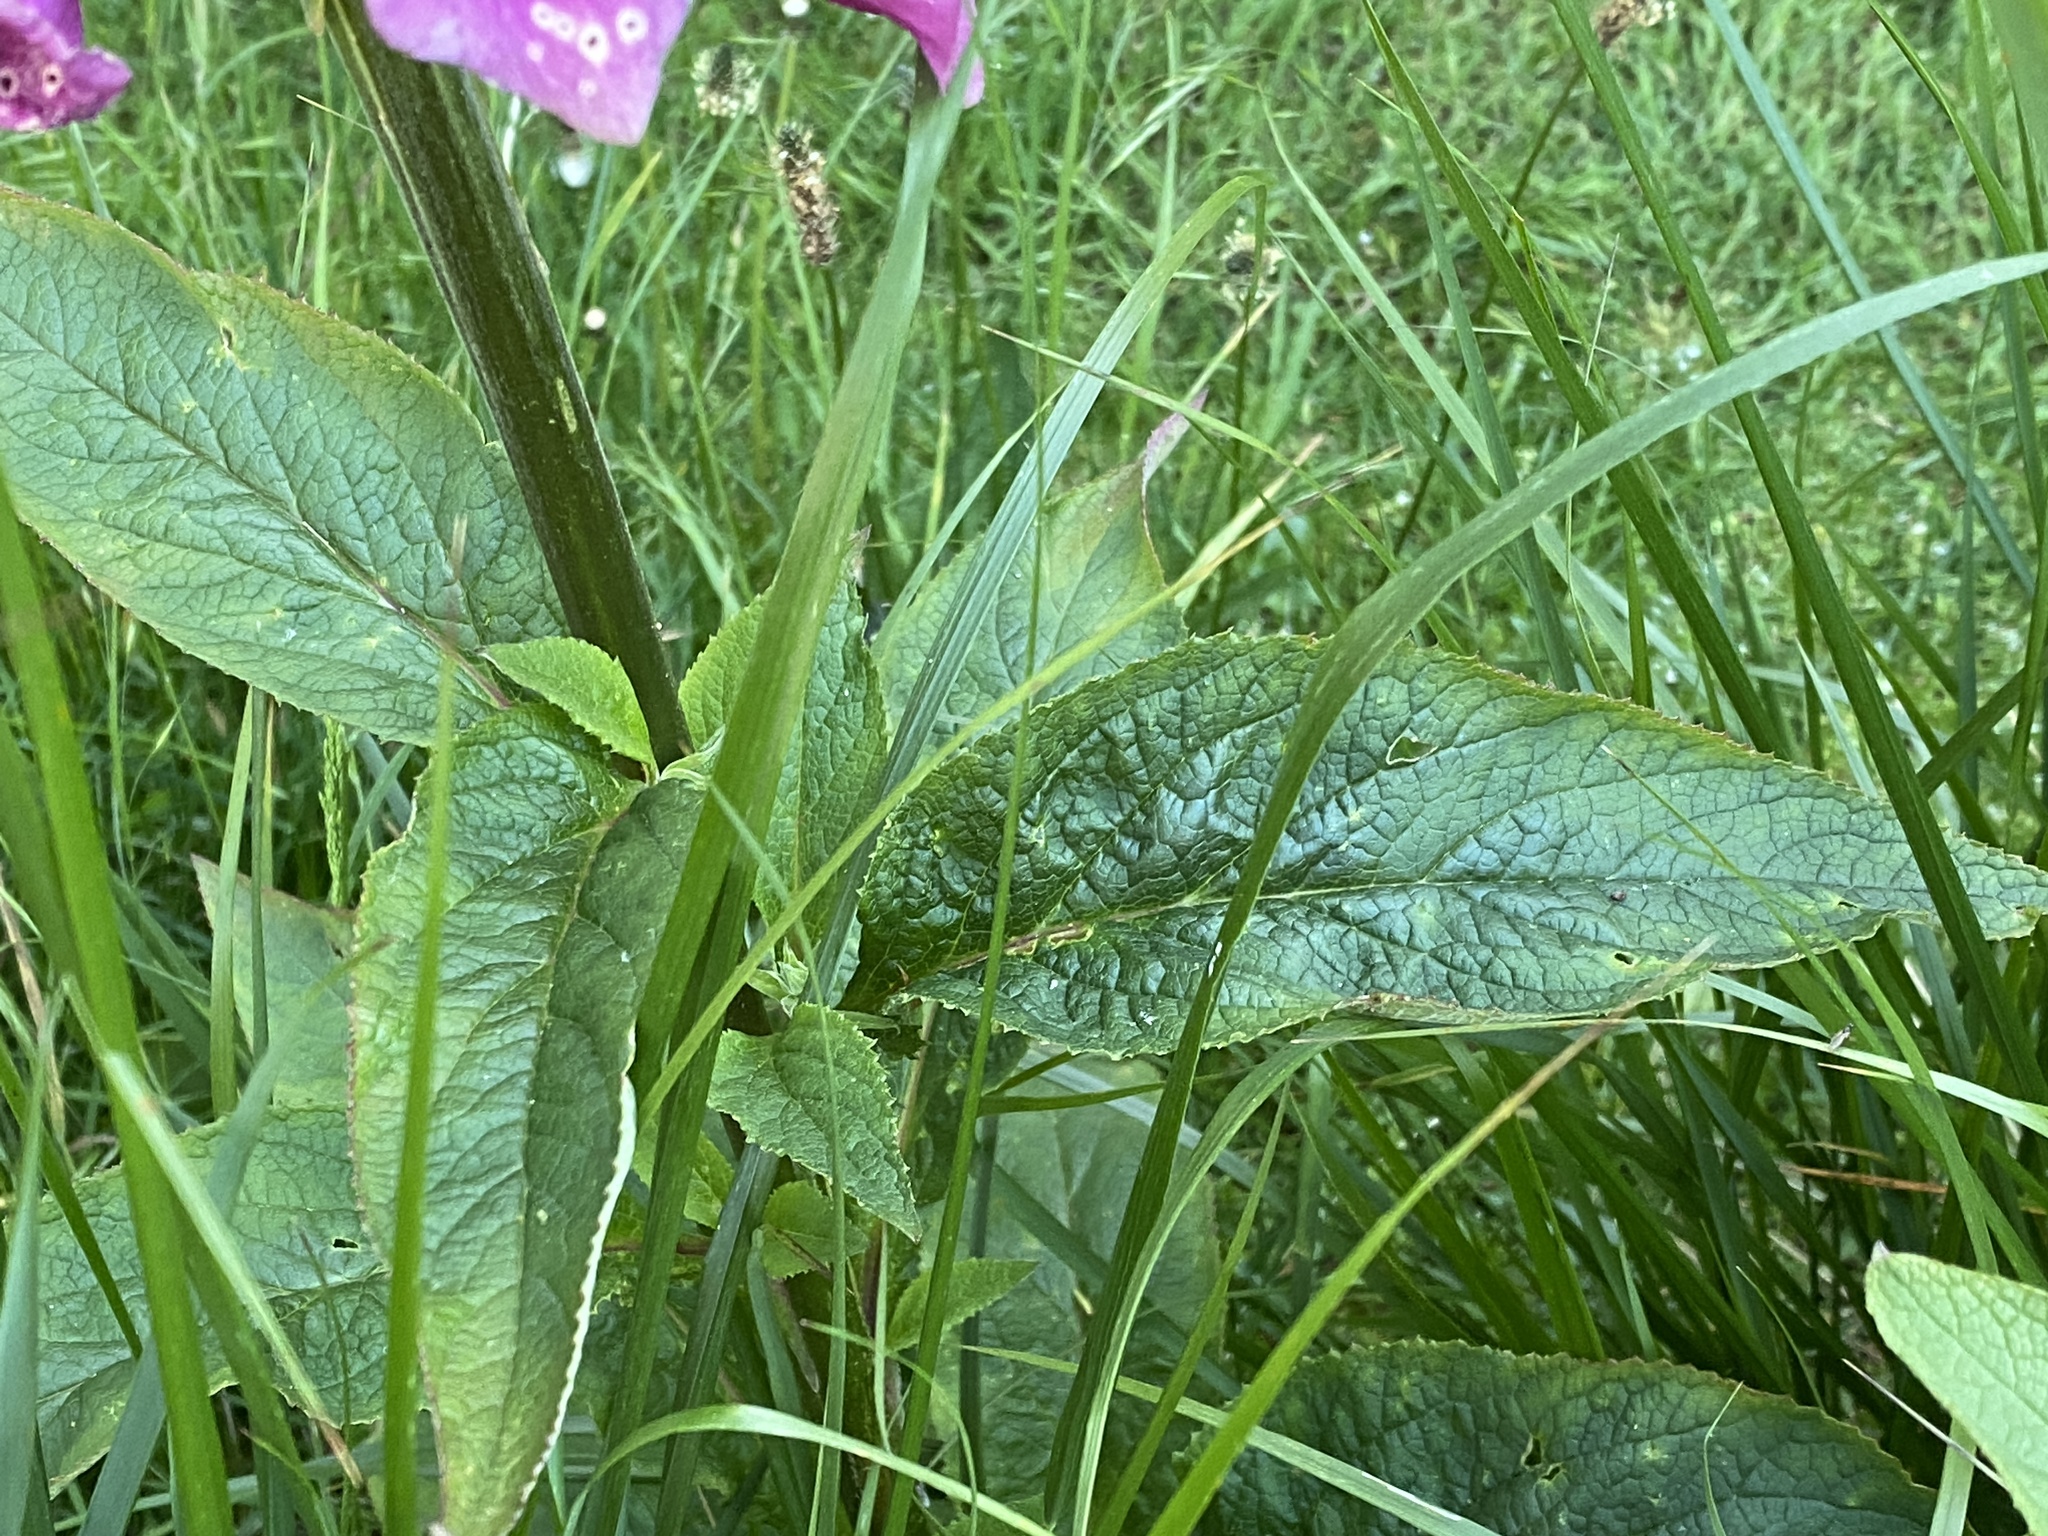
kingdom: Plantae
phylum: Tracheophyta
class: Magnoliopsida
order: Lamiales
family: Plantaginaceae
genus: Digitalis
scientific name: Digitalis purpurea
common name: Foxglove
